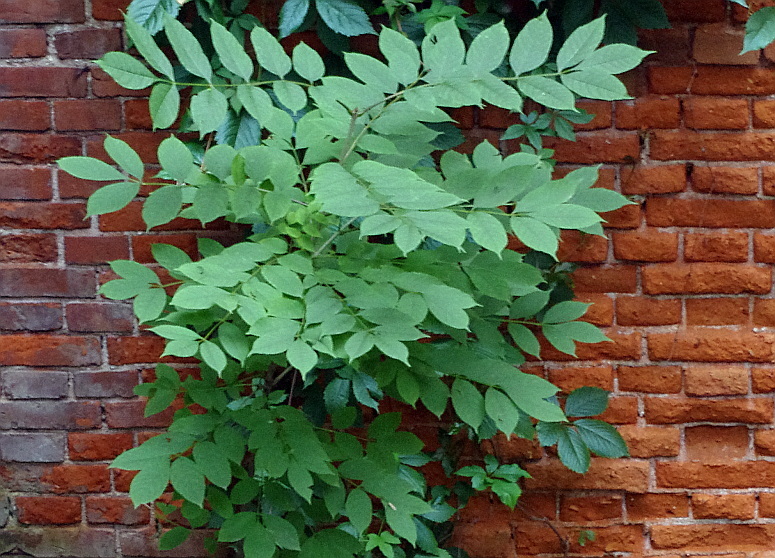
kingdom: Plantae
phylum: Tracheophyta
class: Magnoliopsida
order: Lamiales
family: Oleaceae
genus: Fraxinus
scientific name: Fraxinus mandshurica
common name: Manchurian ash
